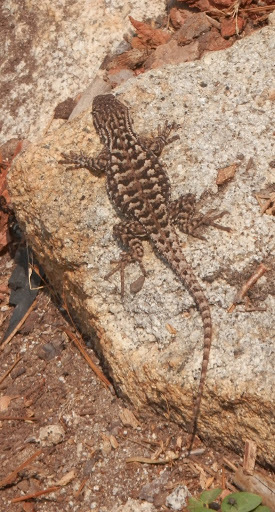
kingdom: Animalia
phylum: Chordata
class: Squamata
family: Phrynosomatidae
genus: Sceloporus
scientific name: Sceloporus occidentalis
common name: Western fence lizard
